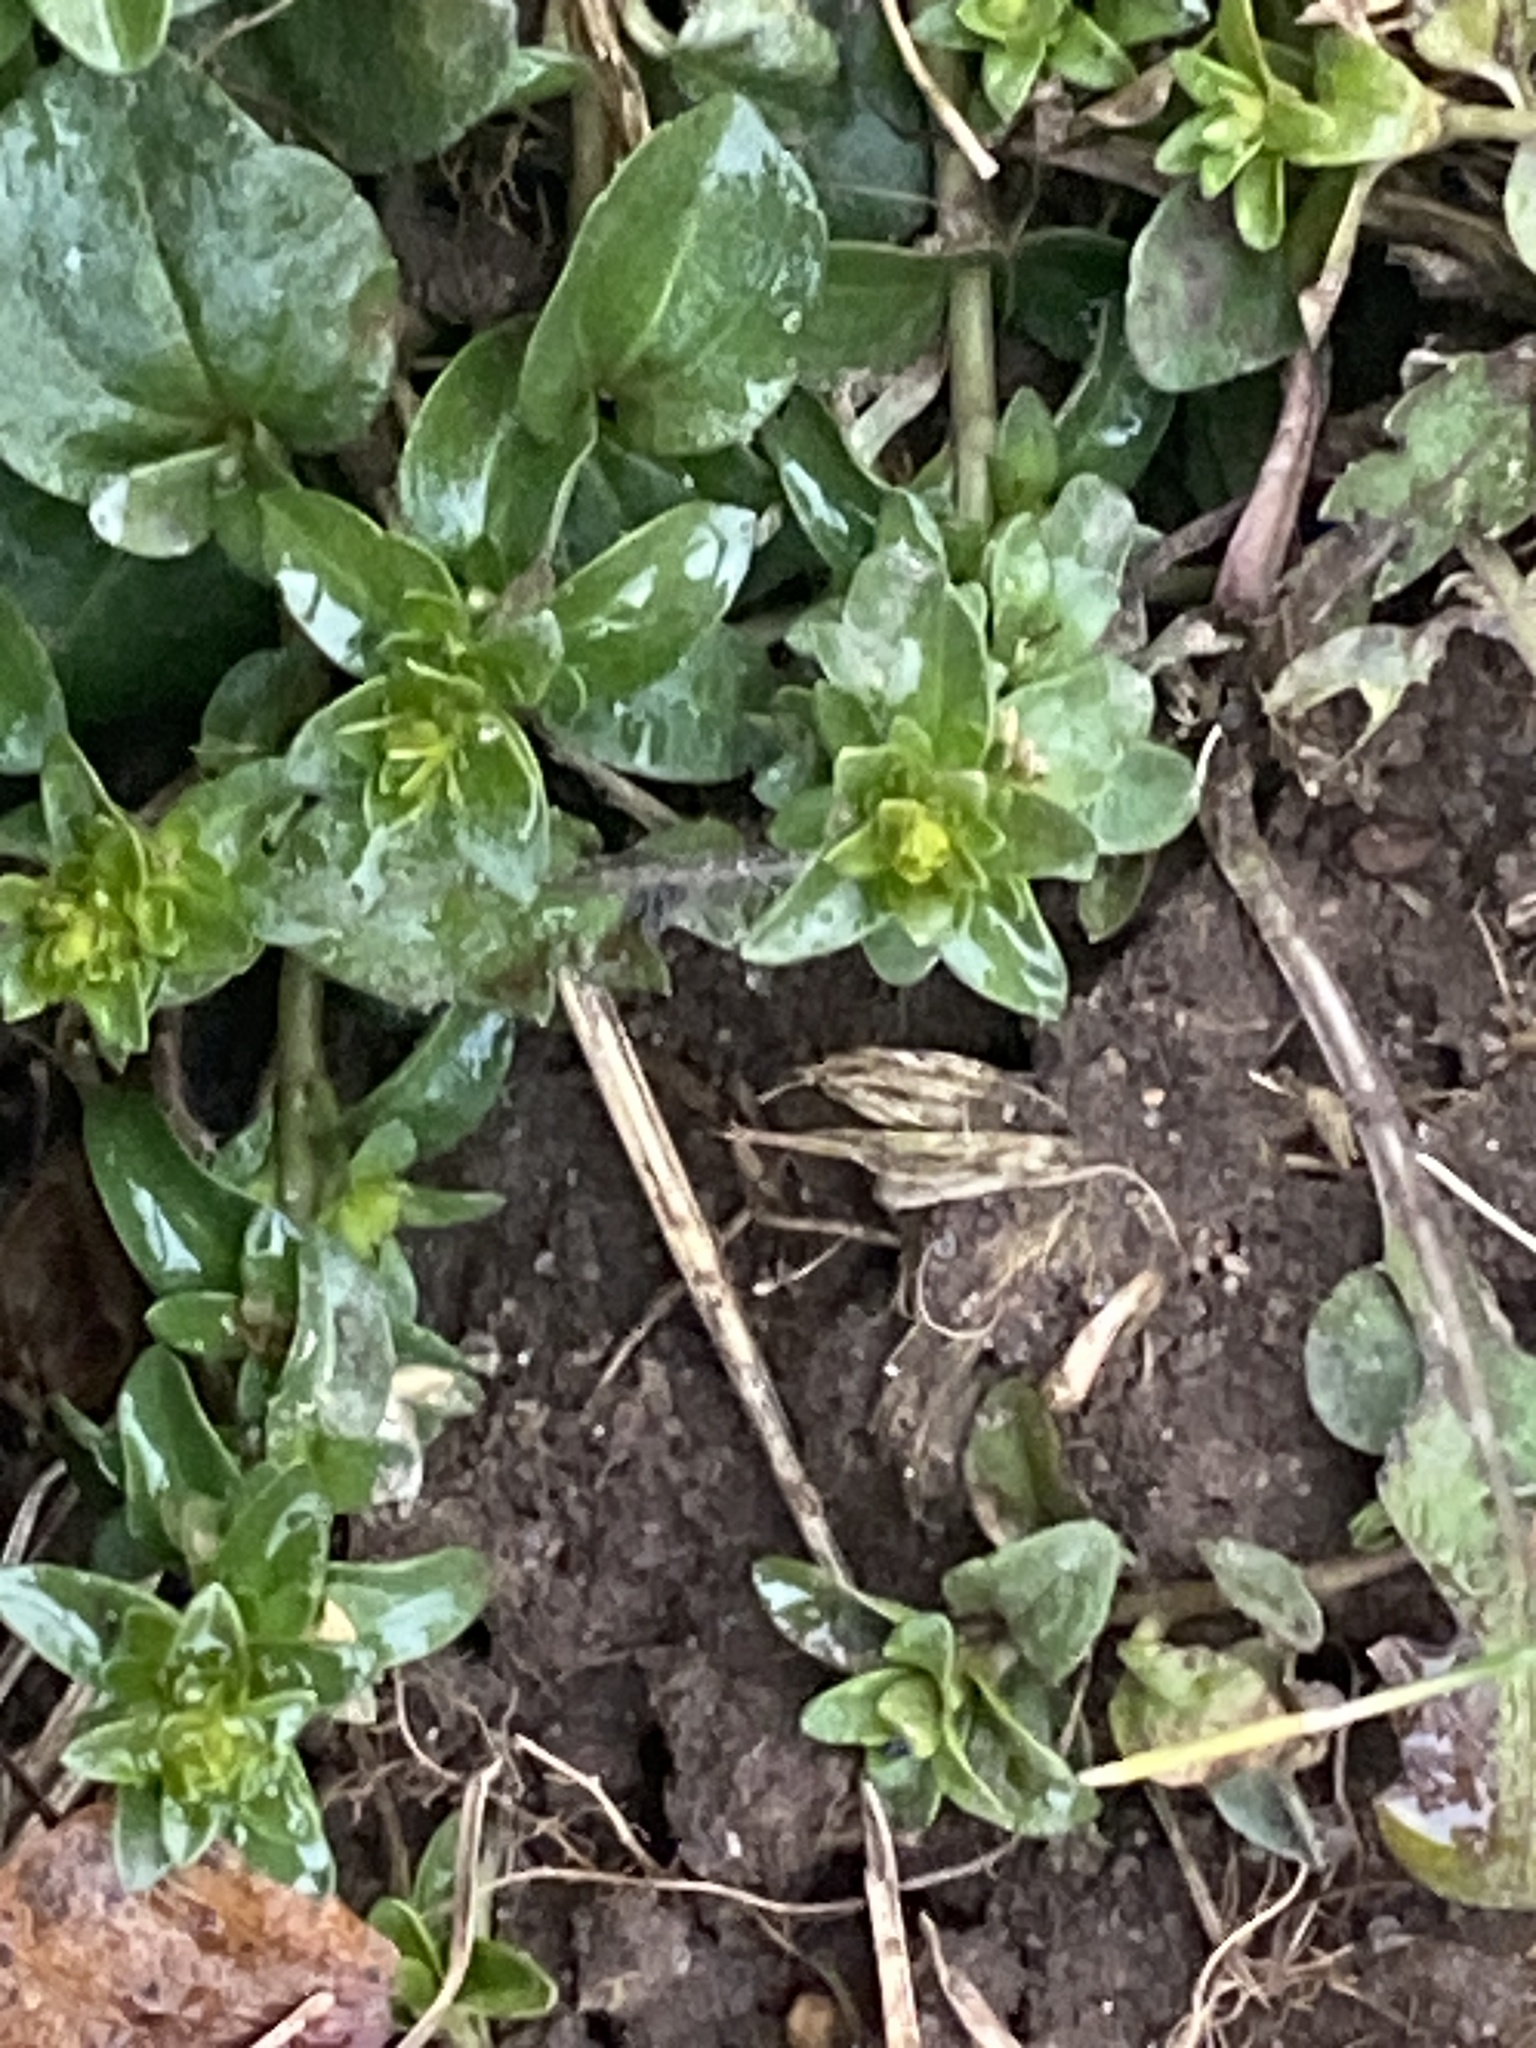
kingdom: Plantae
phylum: Tracheophyta
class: Magnoliopsida
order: Lamiales
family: Plantaginaceae
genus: Veronica
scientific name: Veronica serpyllifolia
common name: Thyme-leaved speedwell
